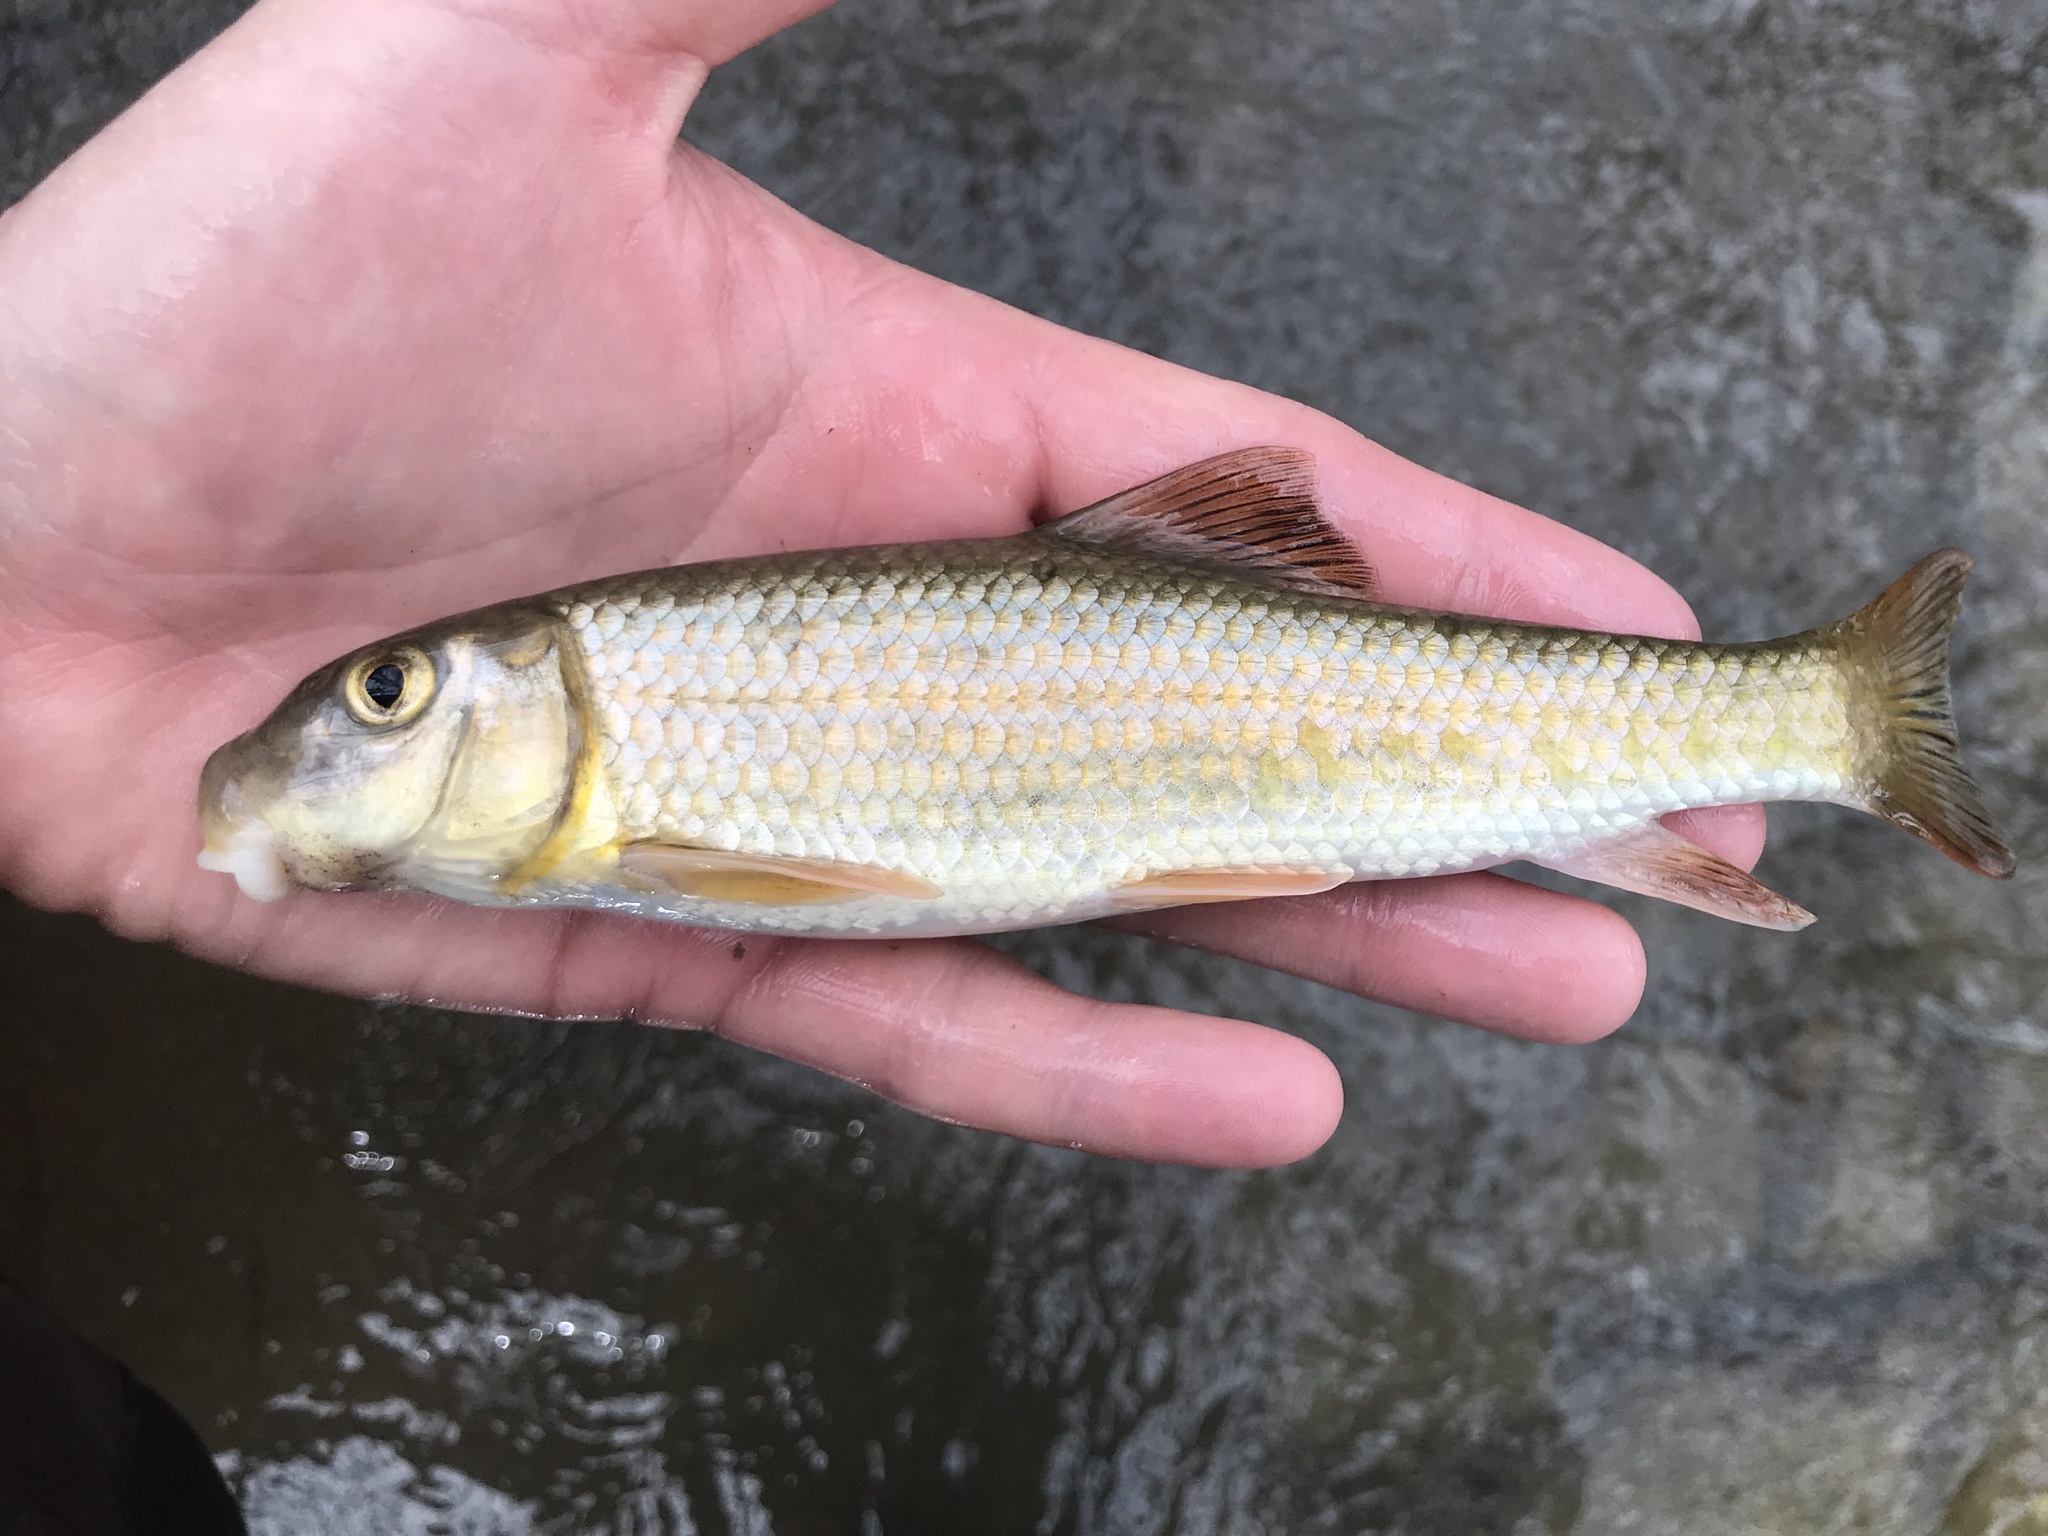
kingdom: Animalia
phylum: Chordata
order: Cypriniformes
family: Catostomidae
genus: Moxostoma
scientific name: Moxostoma congestum
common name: Gray redhorse
